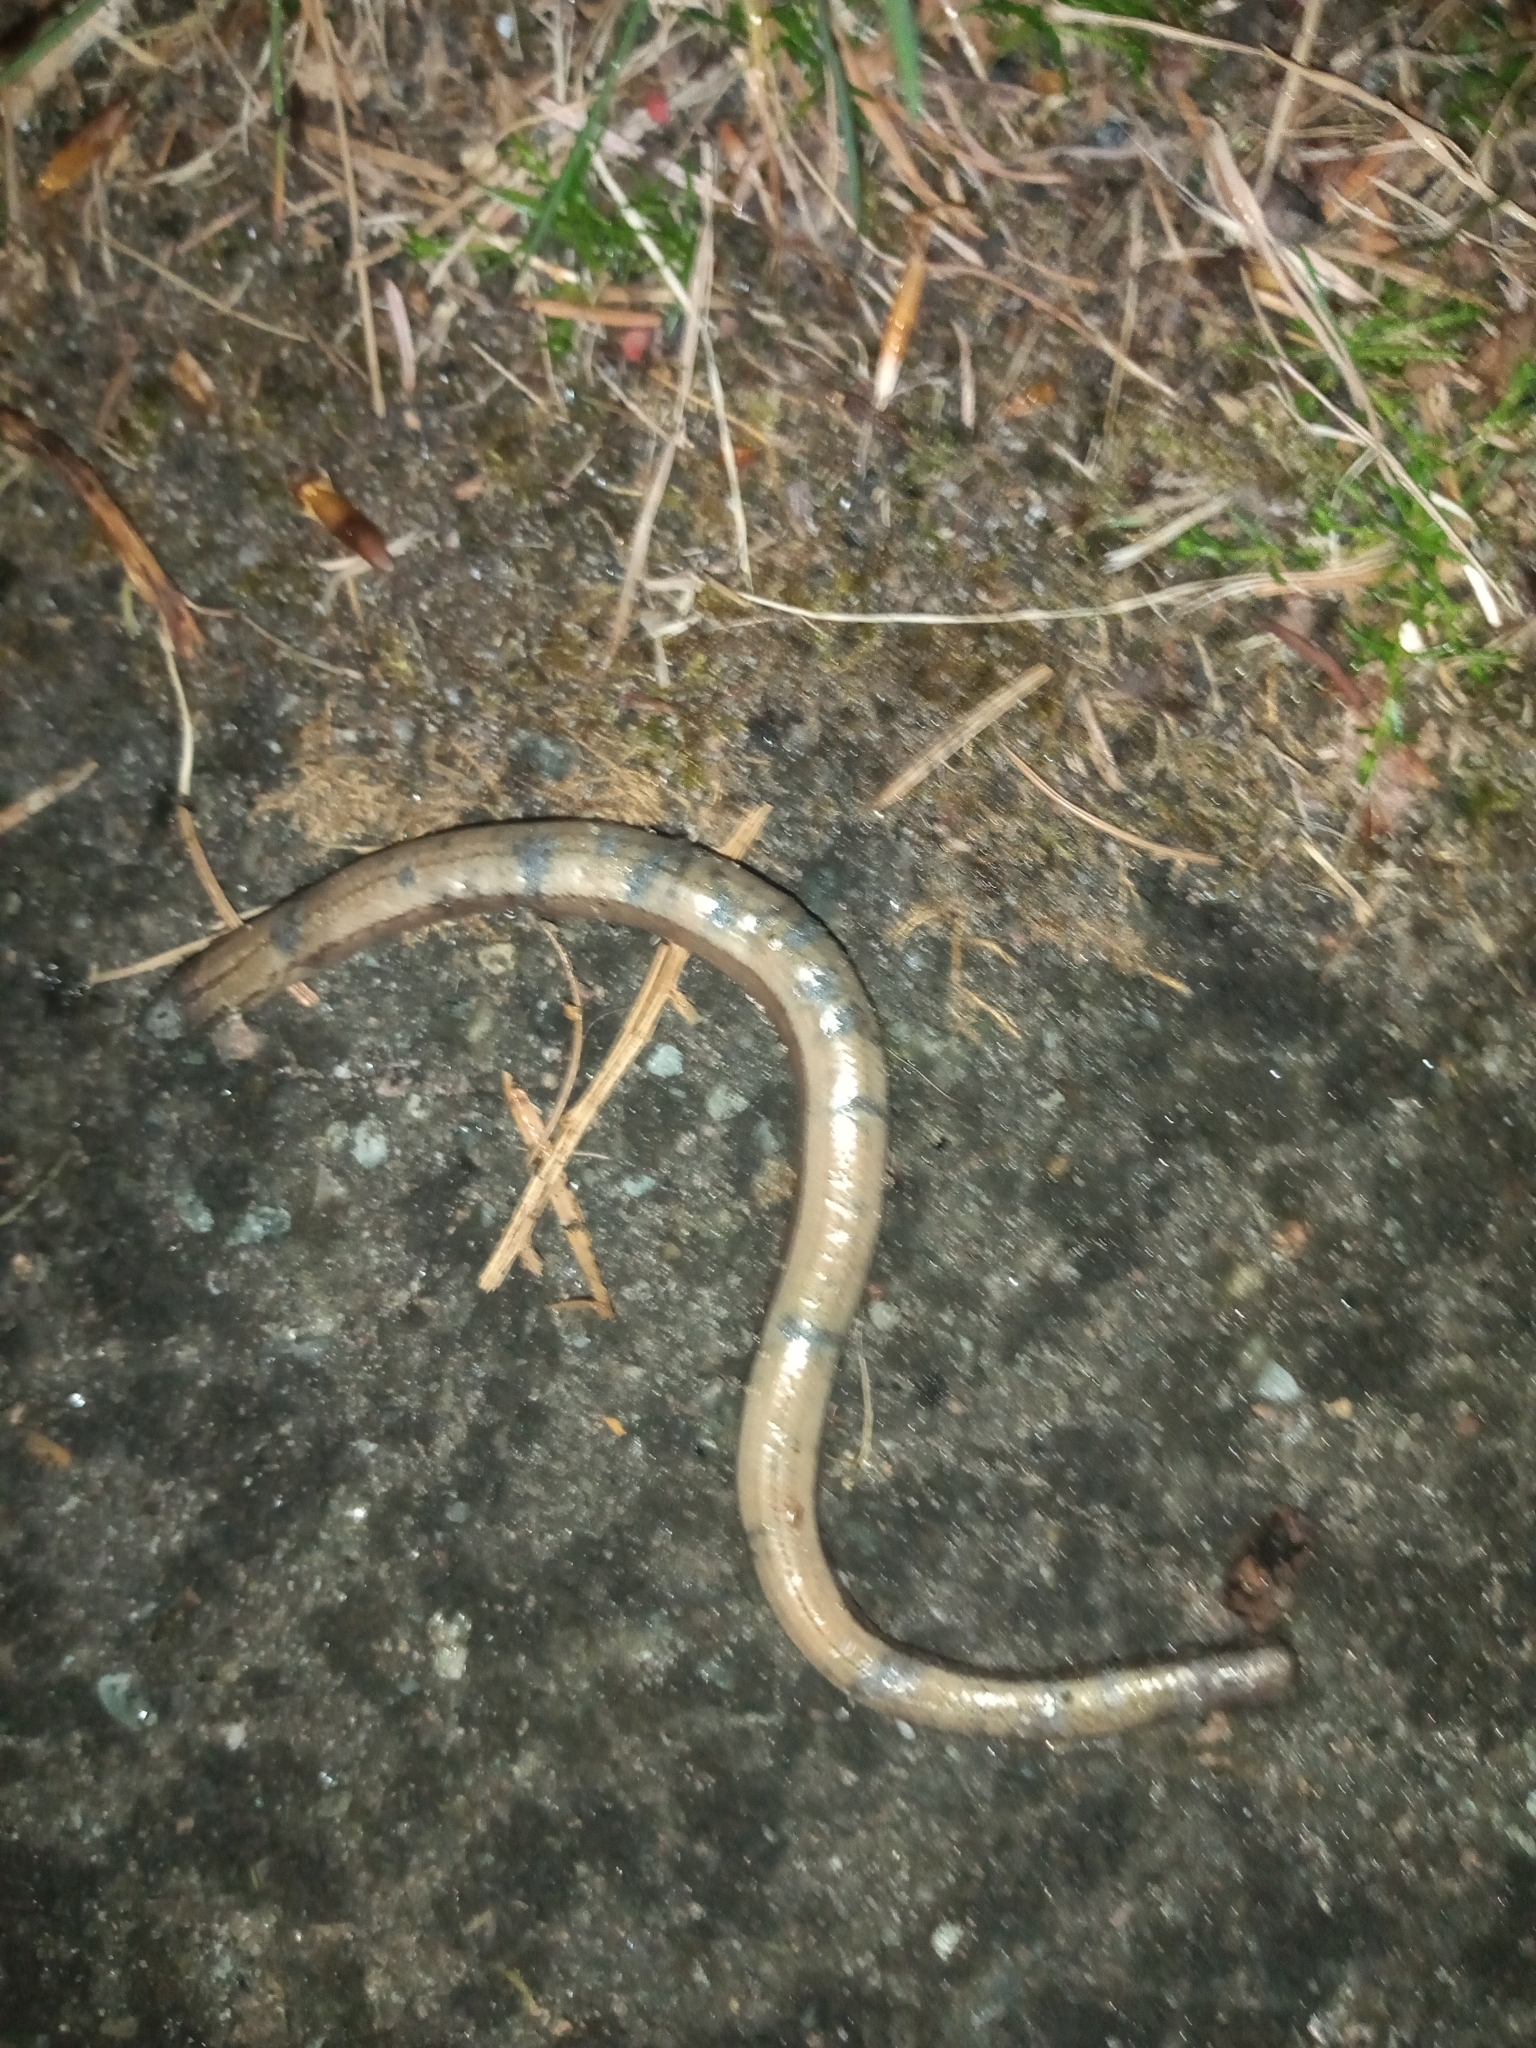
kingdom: Animalia
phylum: Chordata
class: Squamata
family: Anguidae
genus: Anguis
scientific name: Anguis fragilis
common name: Slow worm
